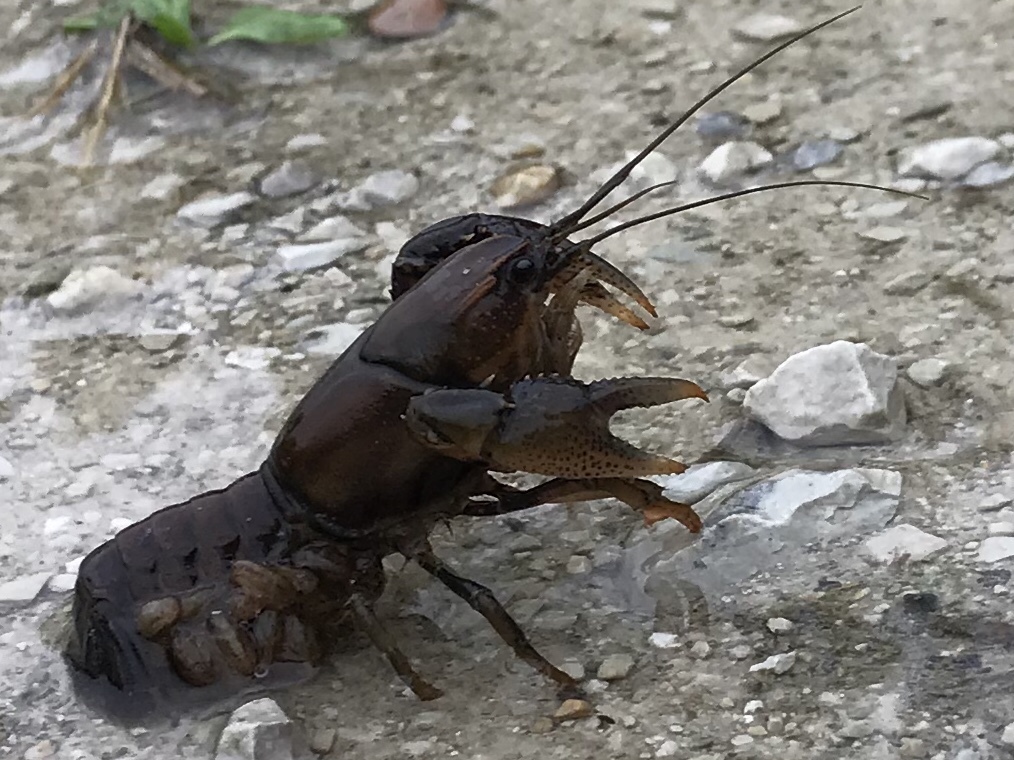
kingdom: Animalia
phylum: Arthropoda
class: Malacostraca
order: Decapoda
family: Cambaridae
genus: Procambarus
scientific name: Procambarus gracilis
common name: Prairie crayfish
